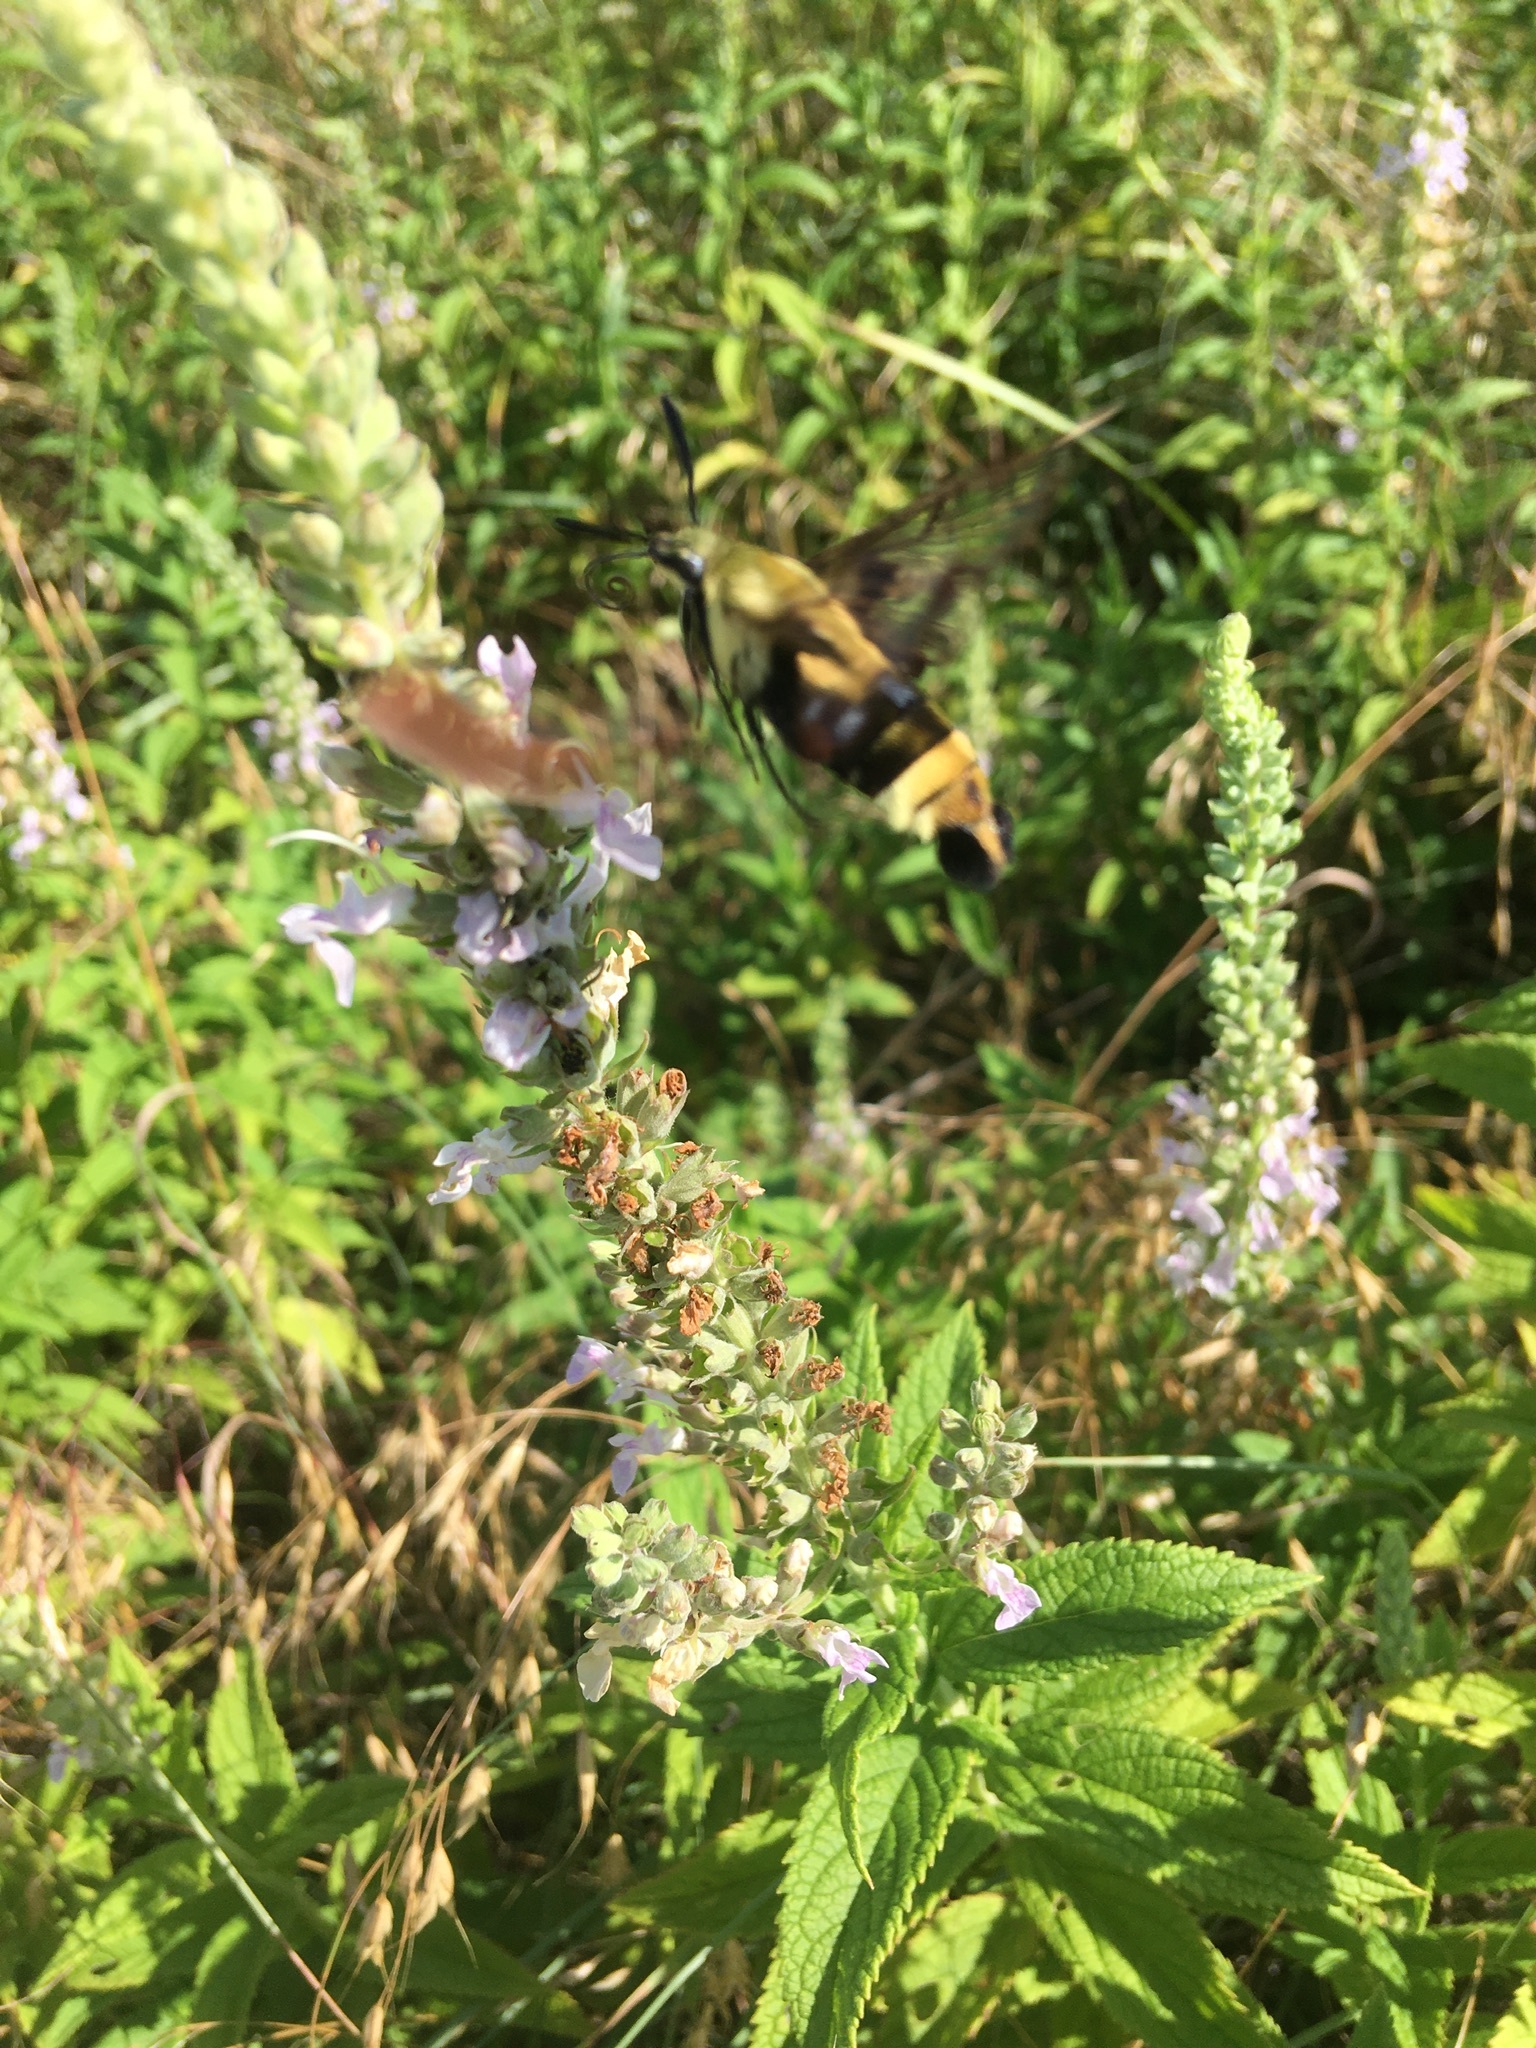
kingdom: Animalia
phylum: Arthropoda
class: Insecta
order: Lepidoptera
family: Sphingidae
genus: Hemaris
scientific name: Hemaris diffinis
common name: Bumblebee moth
